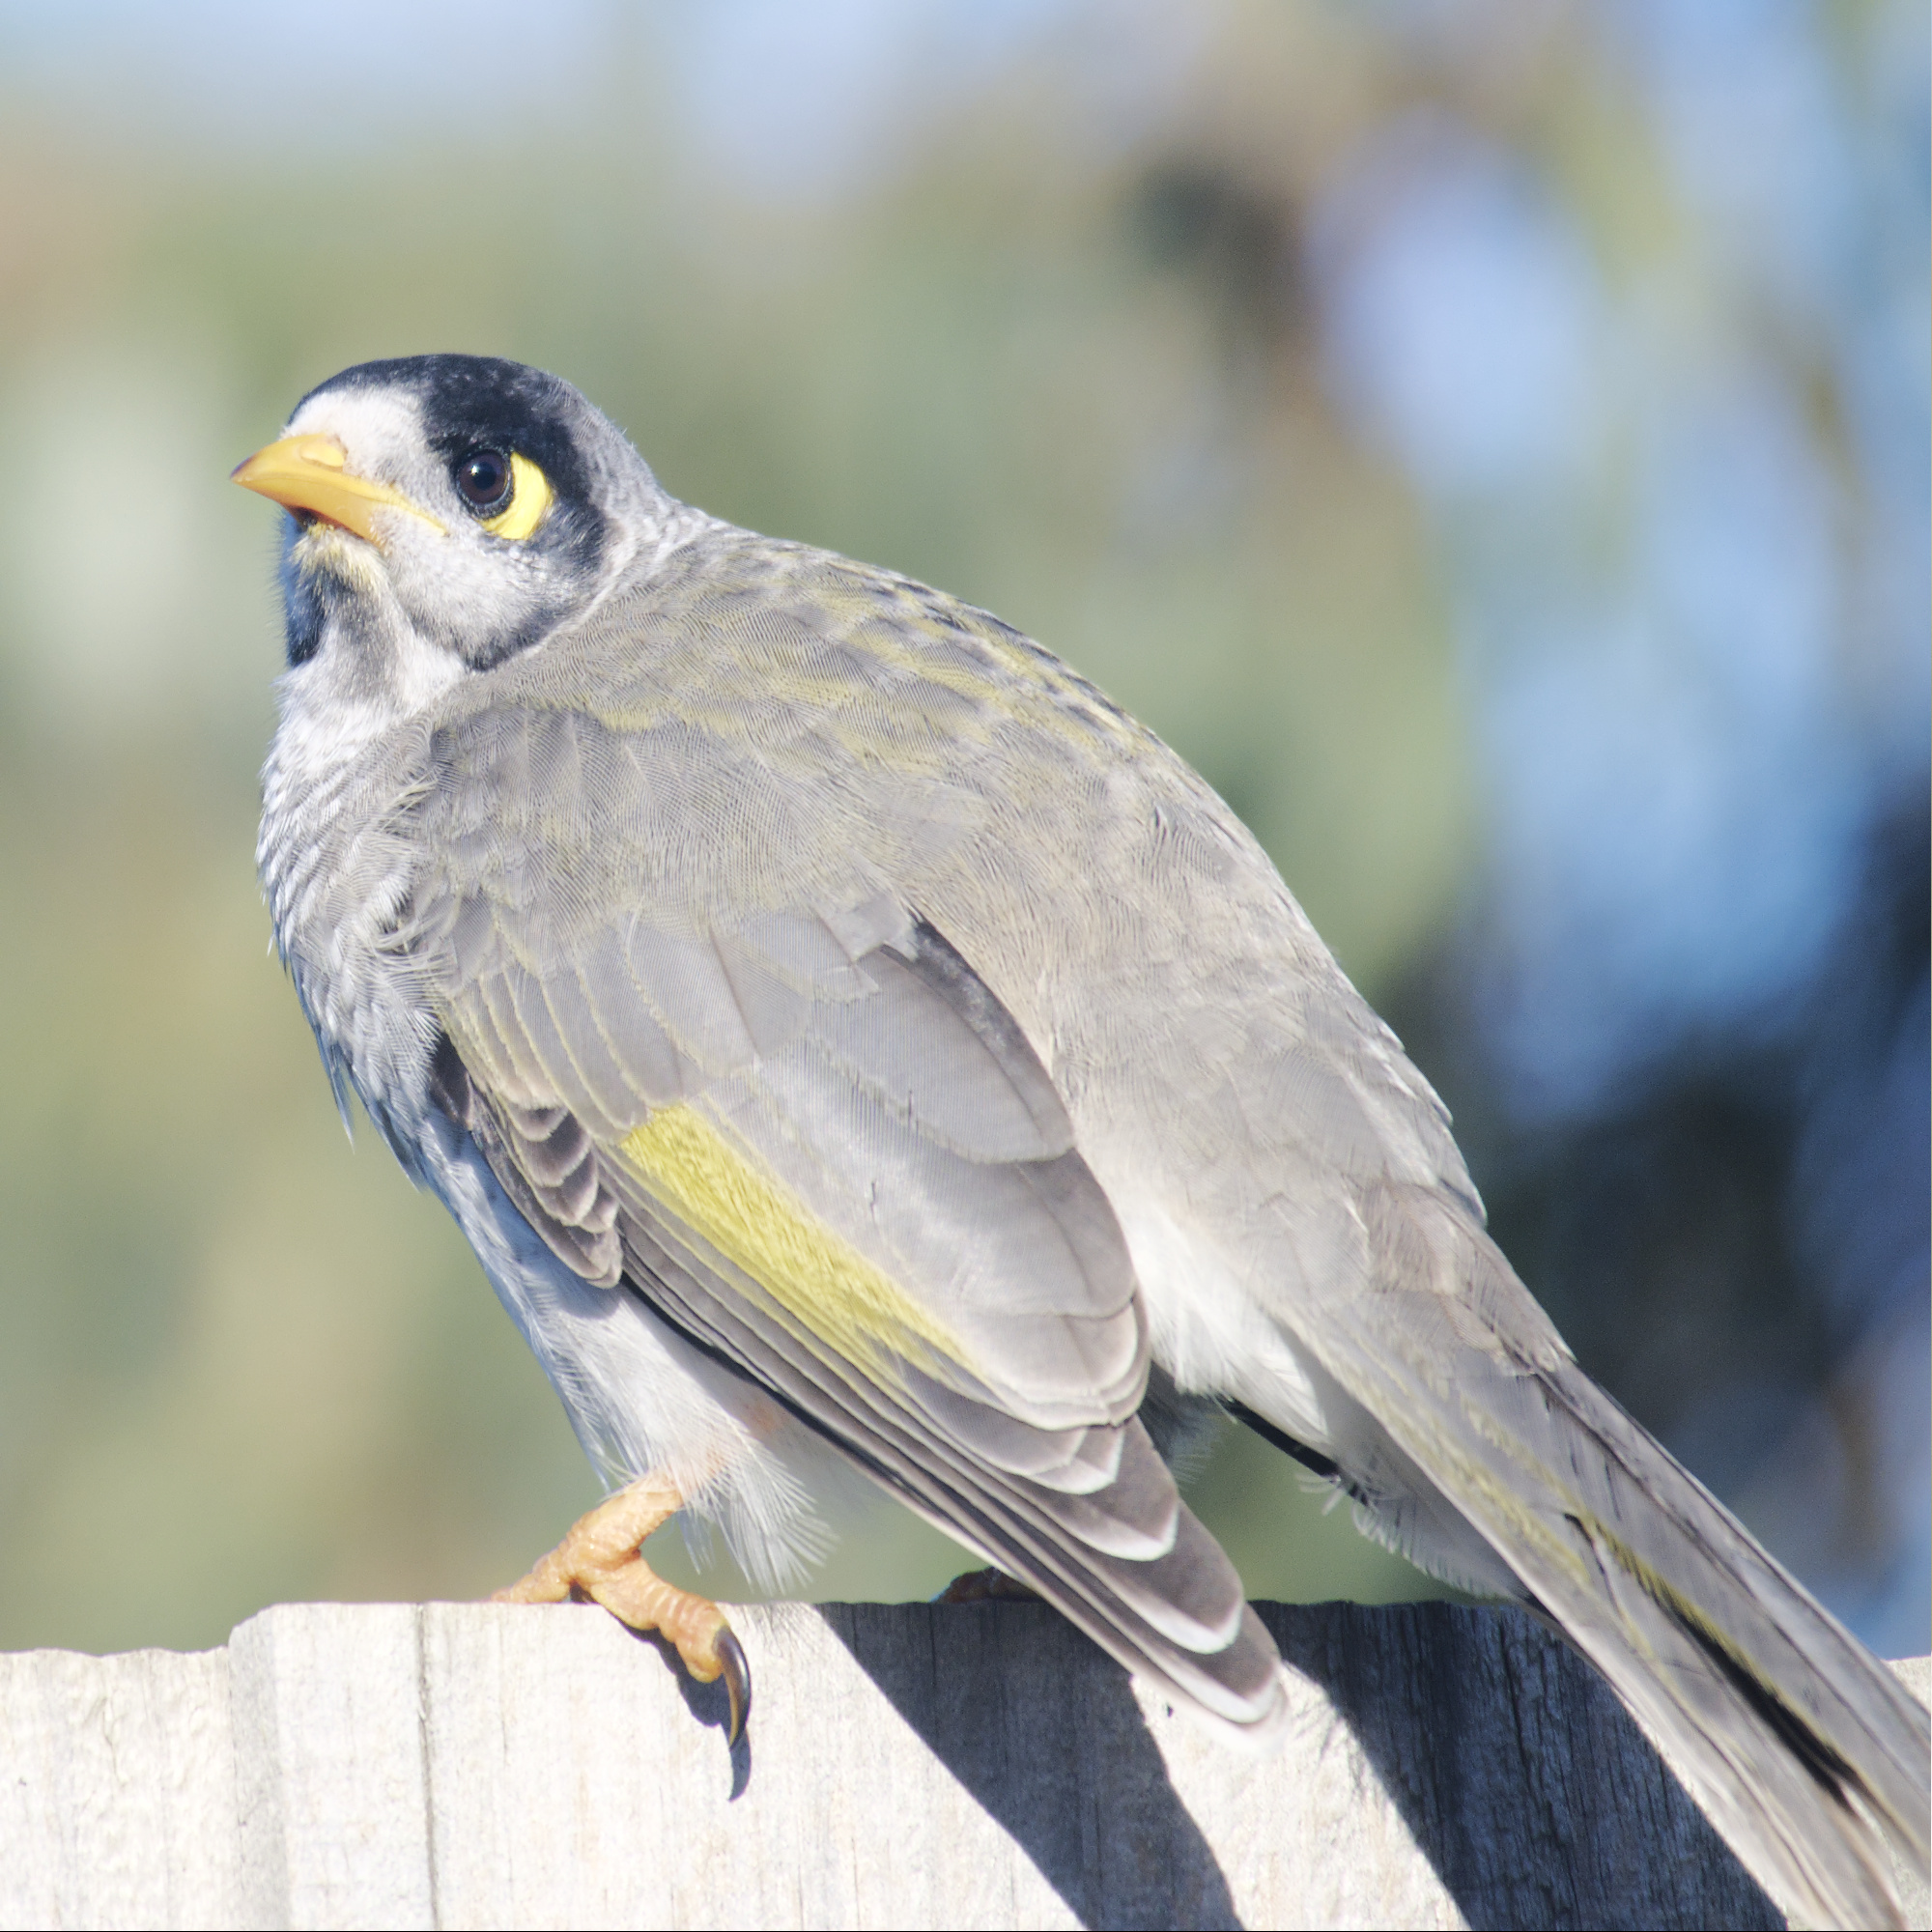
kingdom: Animalia
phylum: Chordata
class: Aves
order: Passeriformes
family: Meliphagidae
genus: Manorina
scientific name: Manorina melanocephala
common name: Noisy miner
